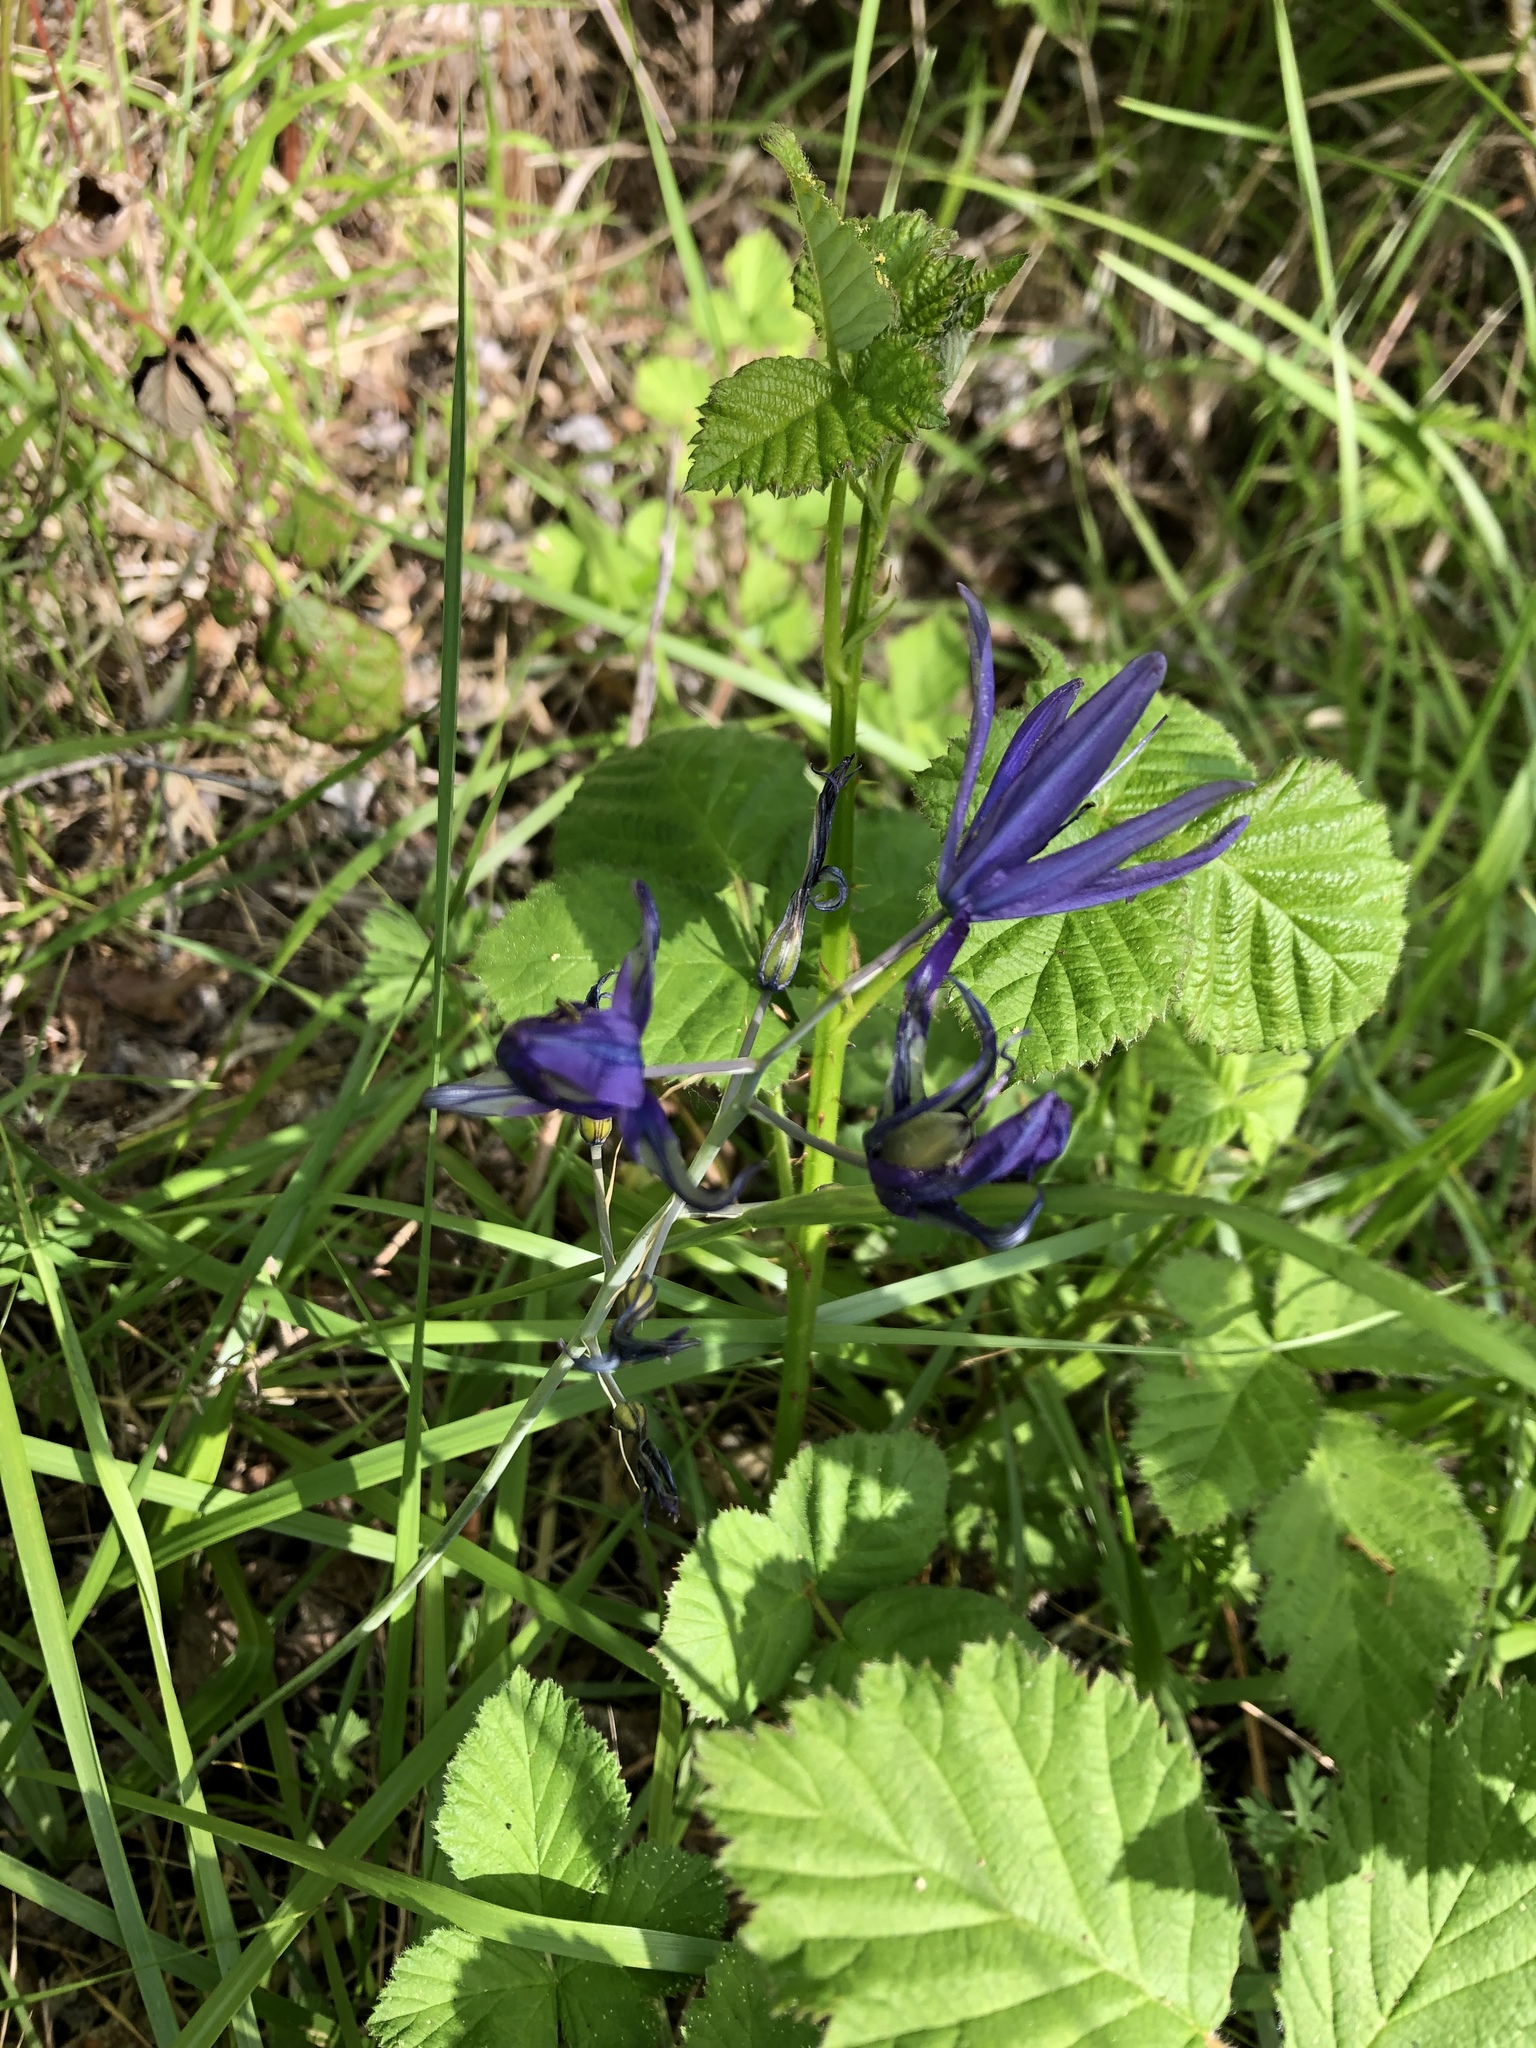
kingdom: Plantae
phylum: Tracheophyta
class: Liliopsida
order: Asparagales
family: Asparagaceae
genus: Camassia
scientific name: Camassia leichtlinii
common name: Leichtlin's camas
